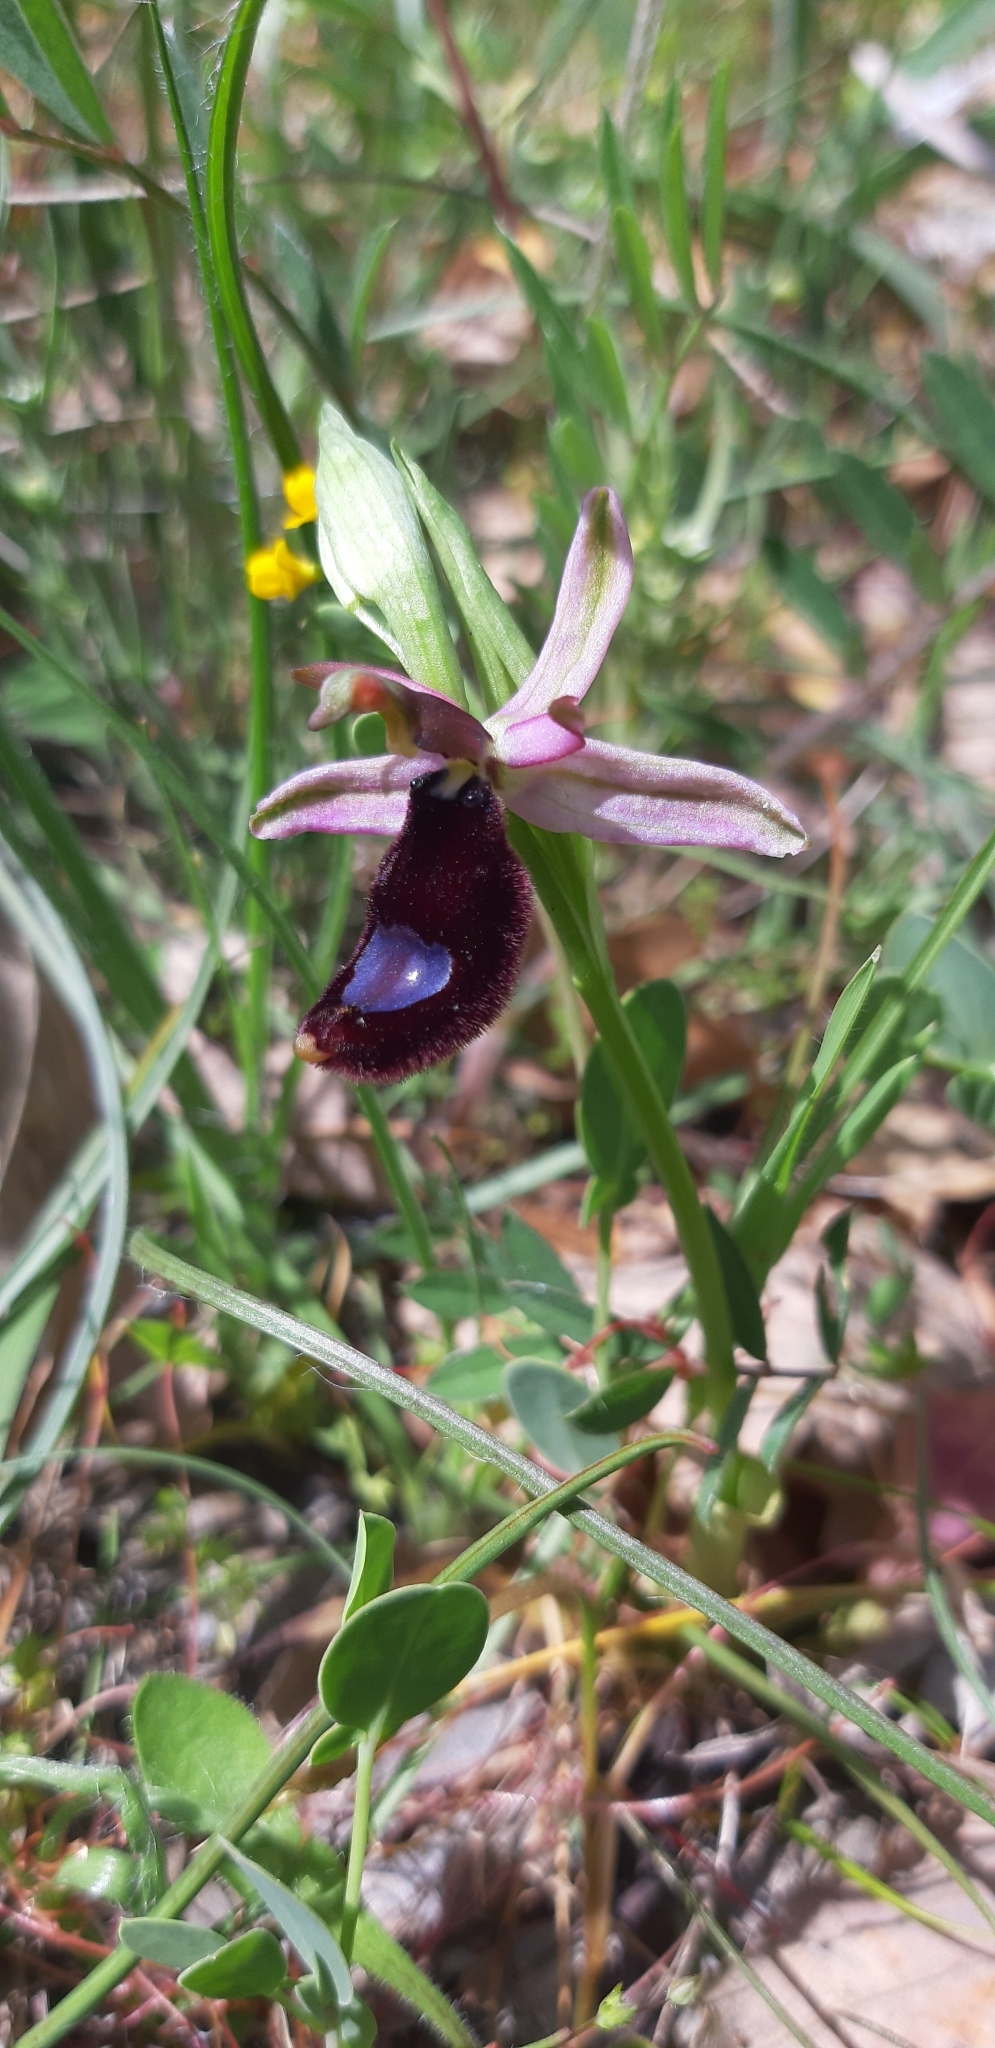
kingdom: Plantae
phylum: Tracheophyta
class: Liliopsida
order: Asparagales
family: Orchidaceae
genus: Ophrys
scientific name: Ophrys bertolonii
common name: Bertoloni's bee orchid
